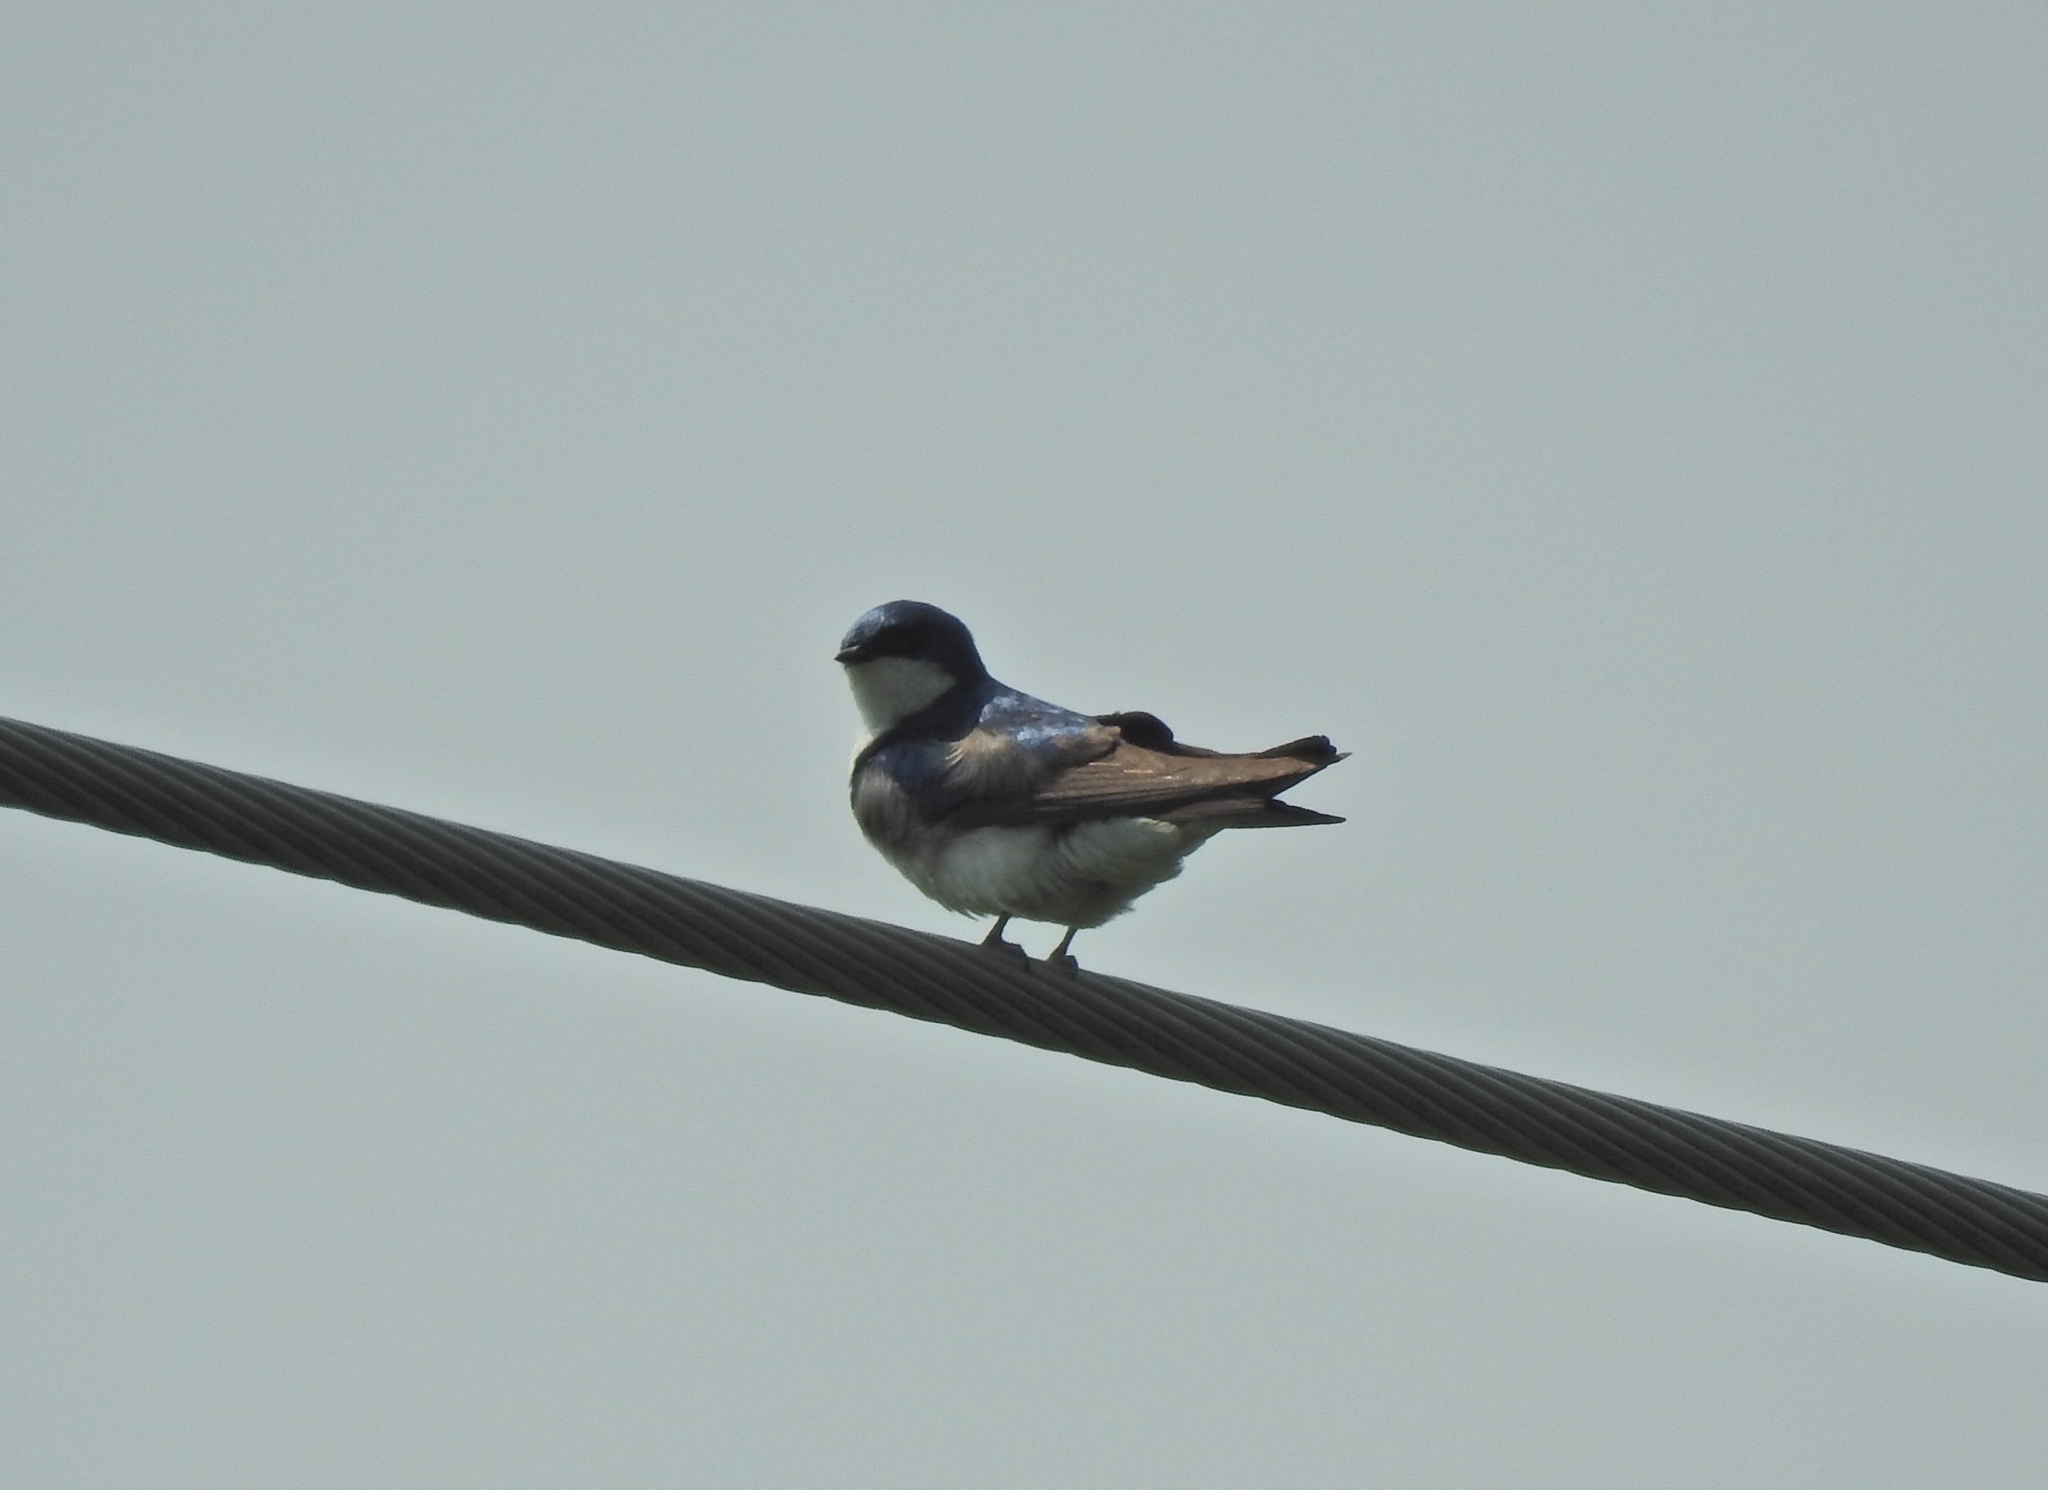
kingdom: Animalia
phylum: Chordata
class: Aves
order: Passeriformes
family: Hirundinidae
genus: Tachycineta
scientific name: Tachycineta bicolor
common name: Tree swallow
